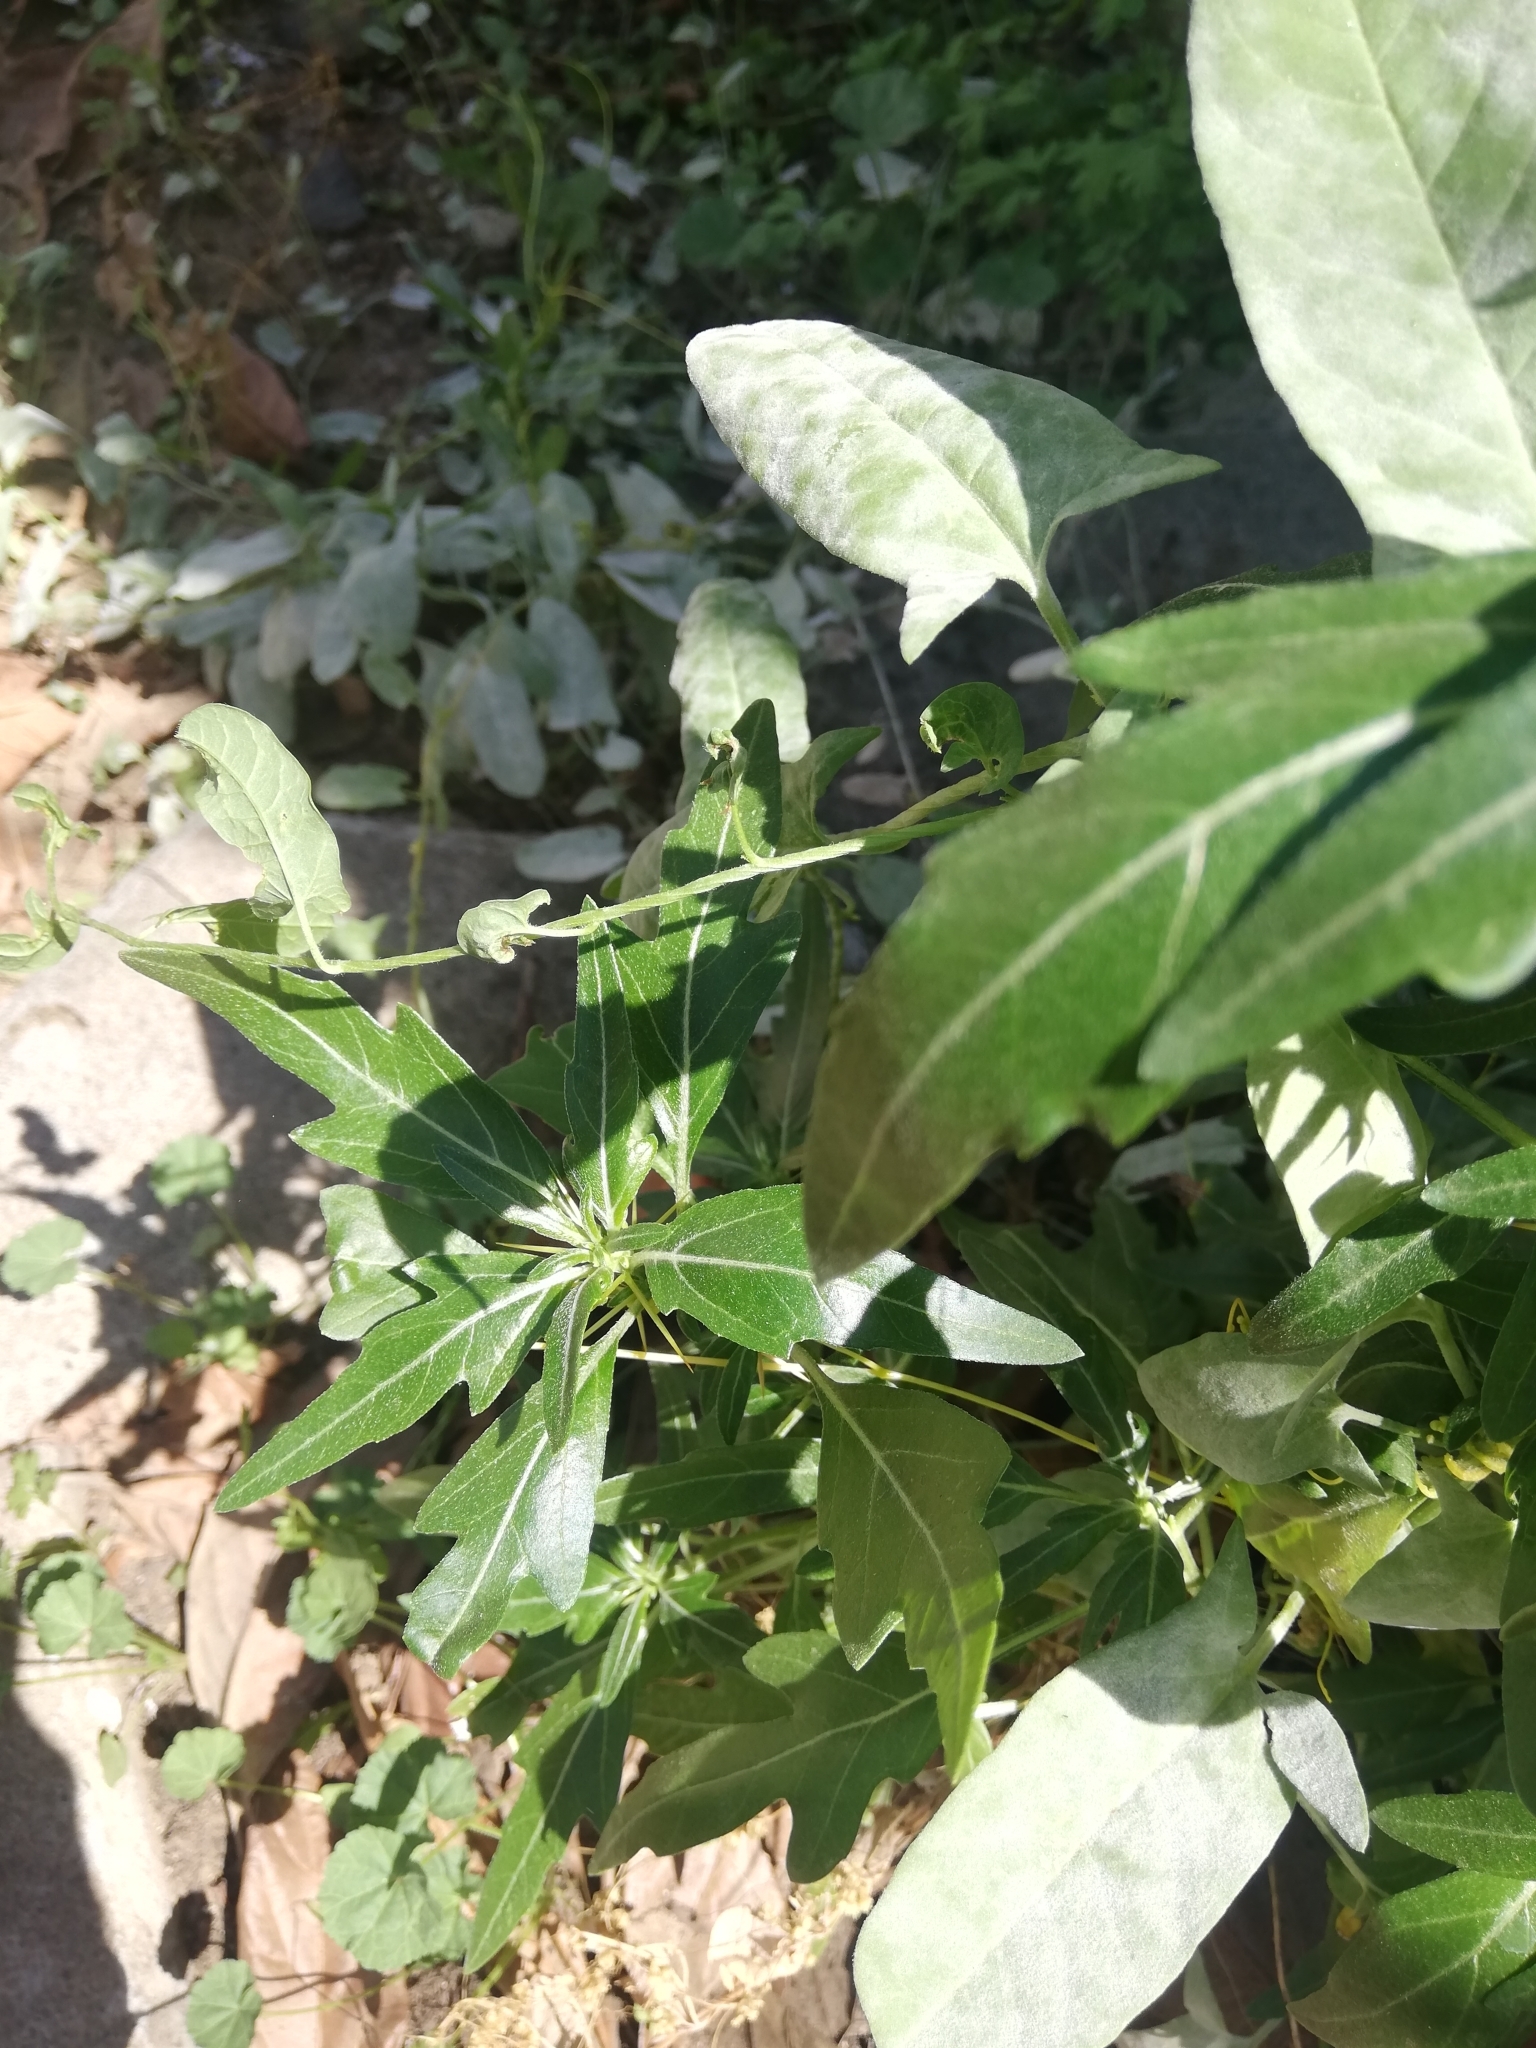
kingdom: Plantae
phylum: Tracheophyta
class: Magnoliopsida
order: Asterales
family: Asteraceae
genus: Xanthium
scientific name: Xanthium spinosum
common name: Spiny cocklebur
